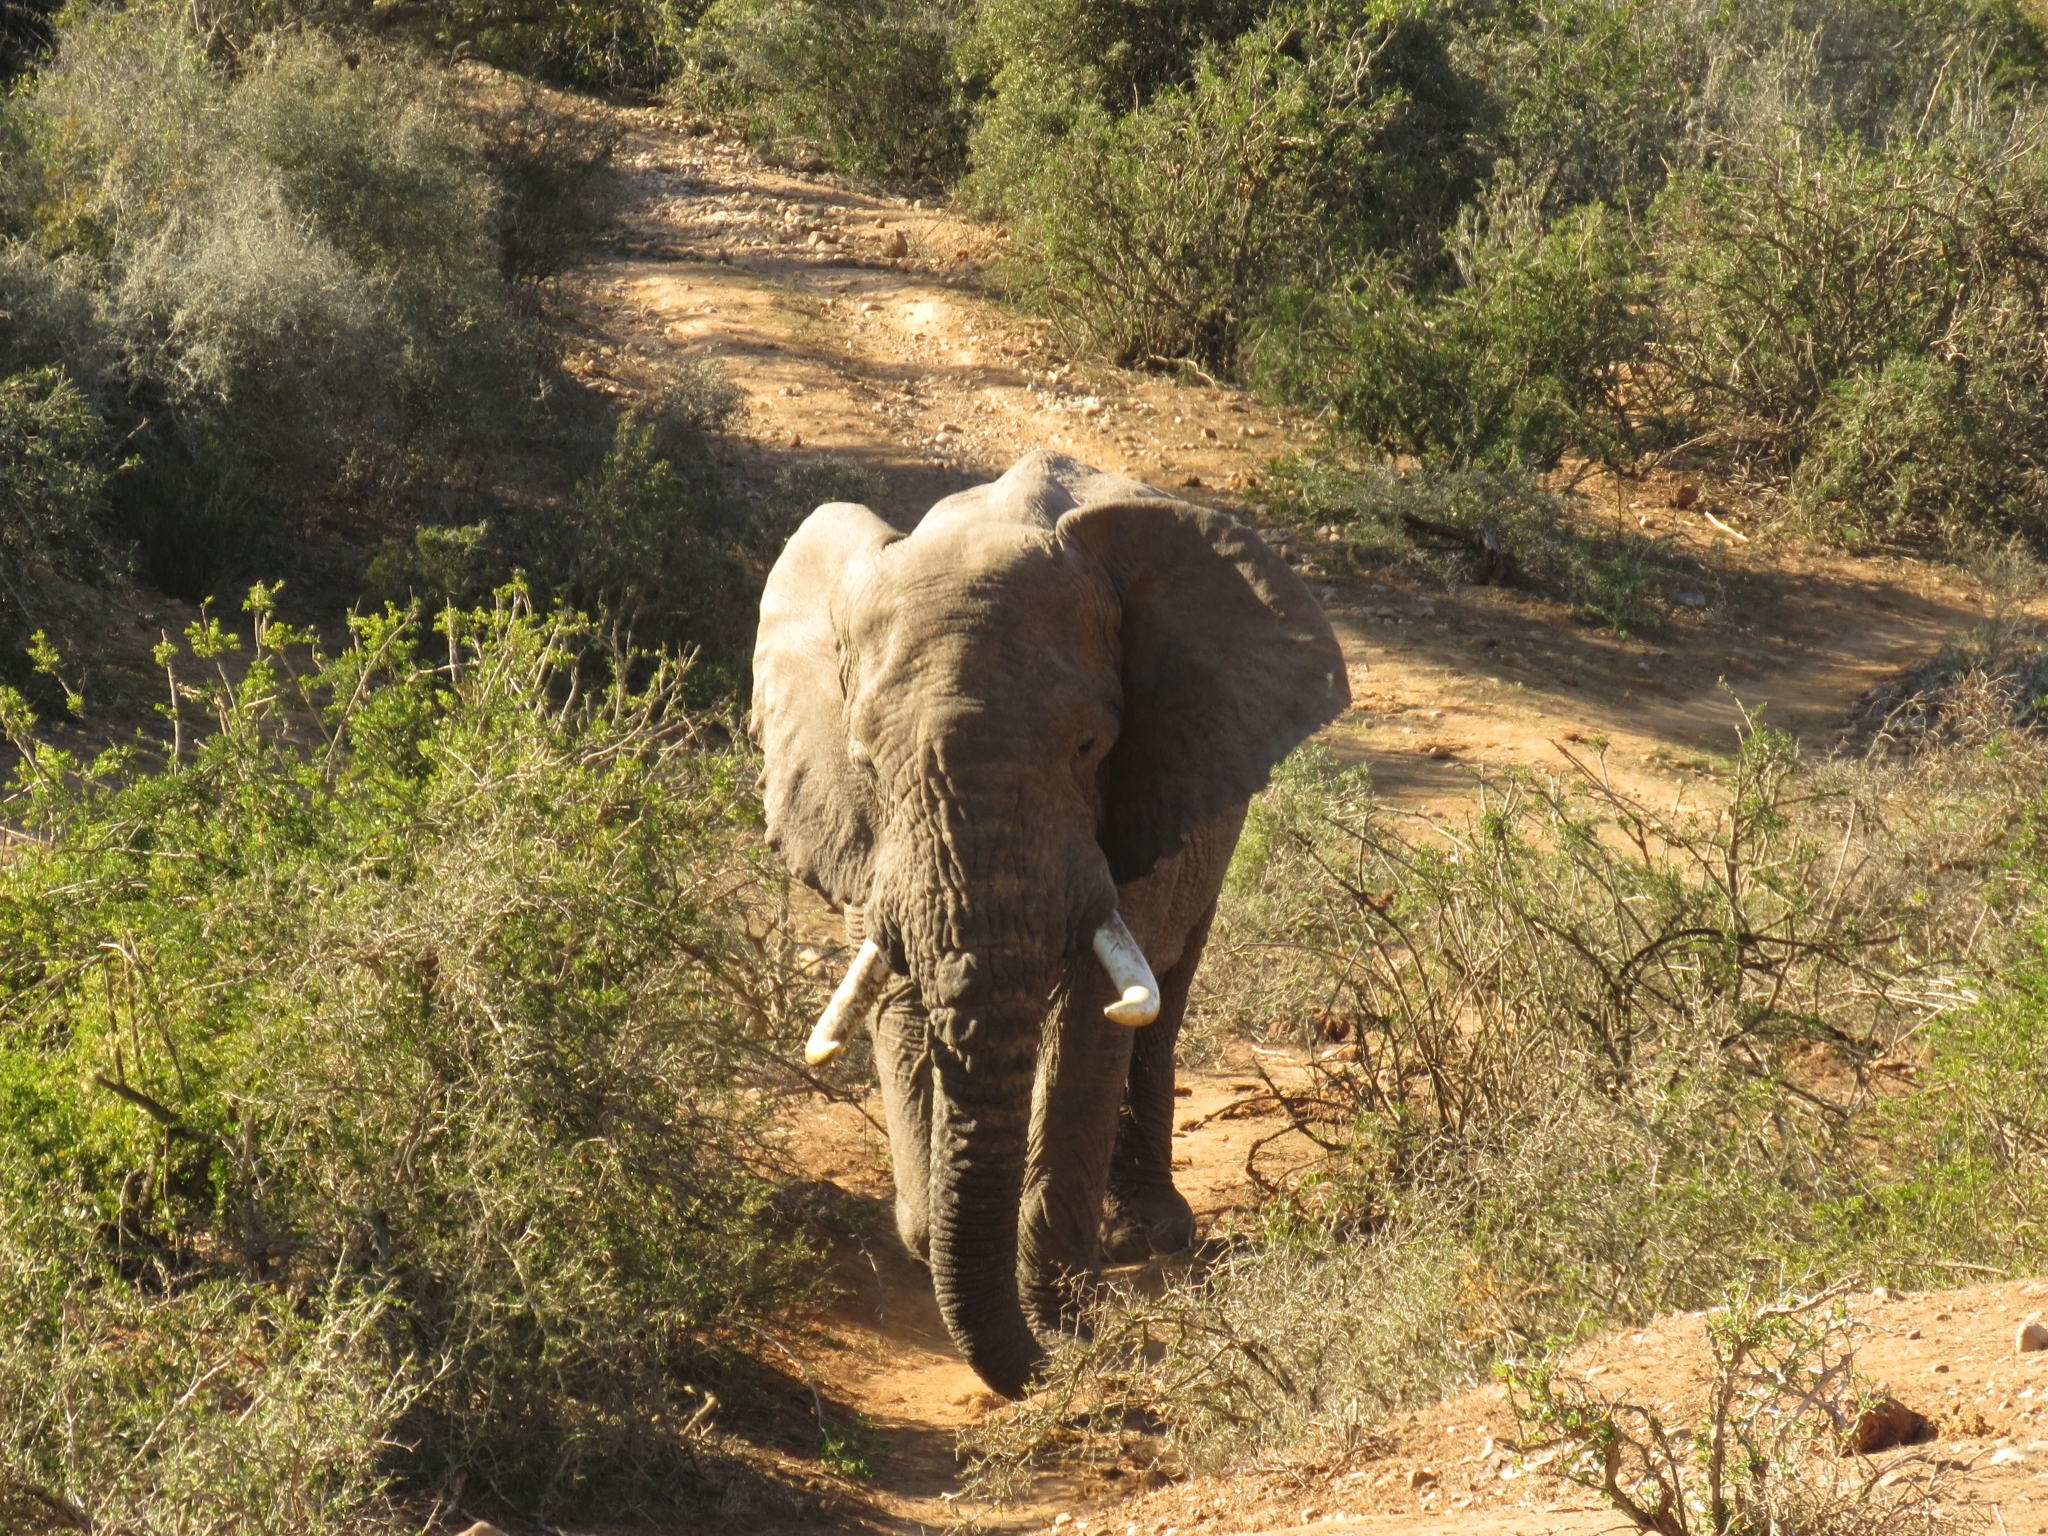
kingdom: Animalia
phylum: Chordata
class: Mammalia
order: Proboscidea
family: Elephantidae
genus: Loxodonta
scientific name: Loxodonta africana
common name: African elephant
